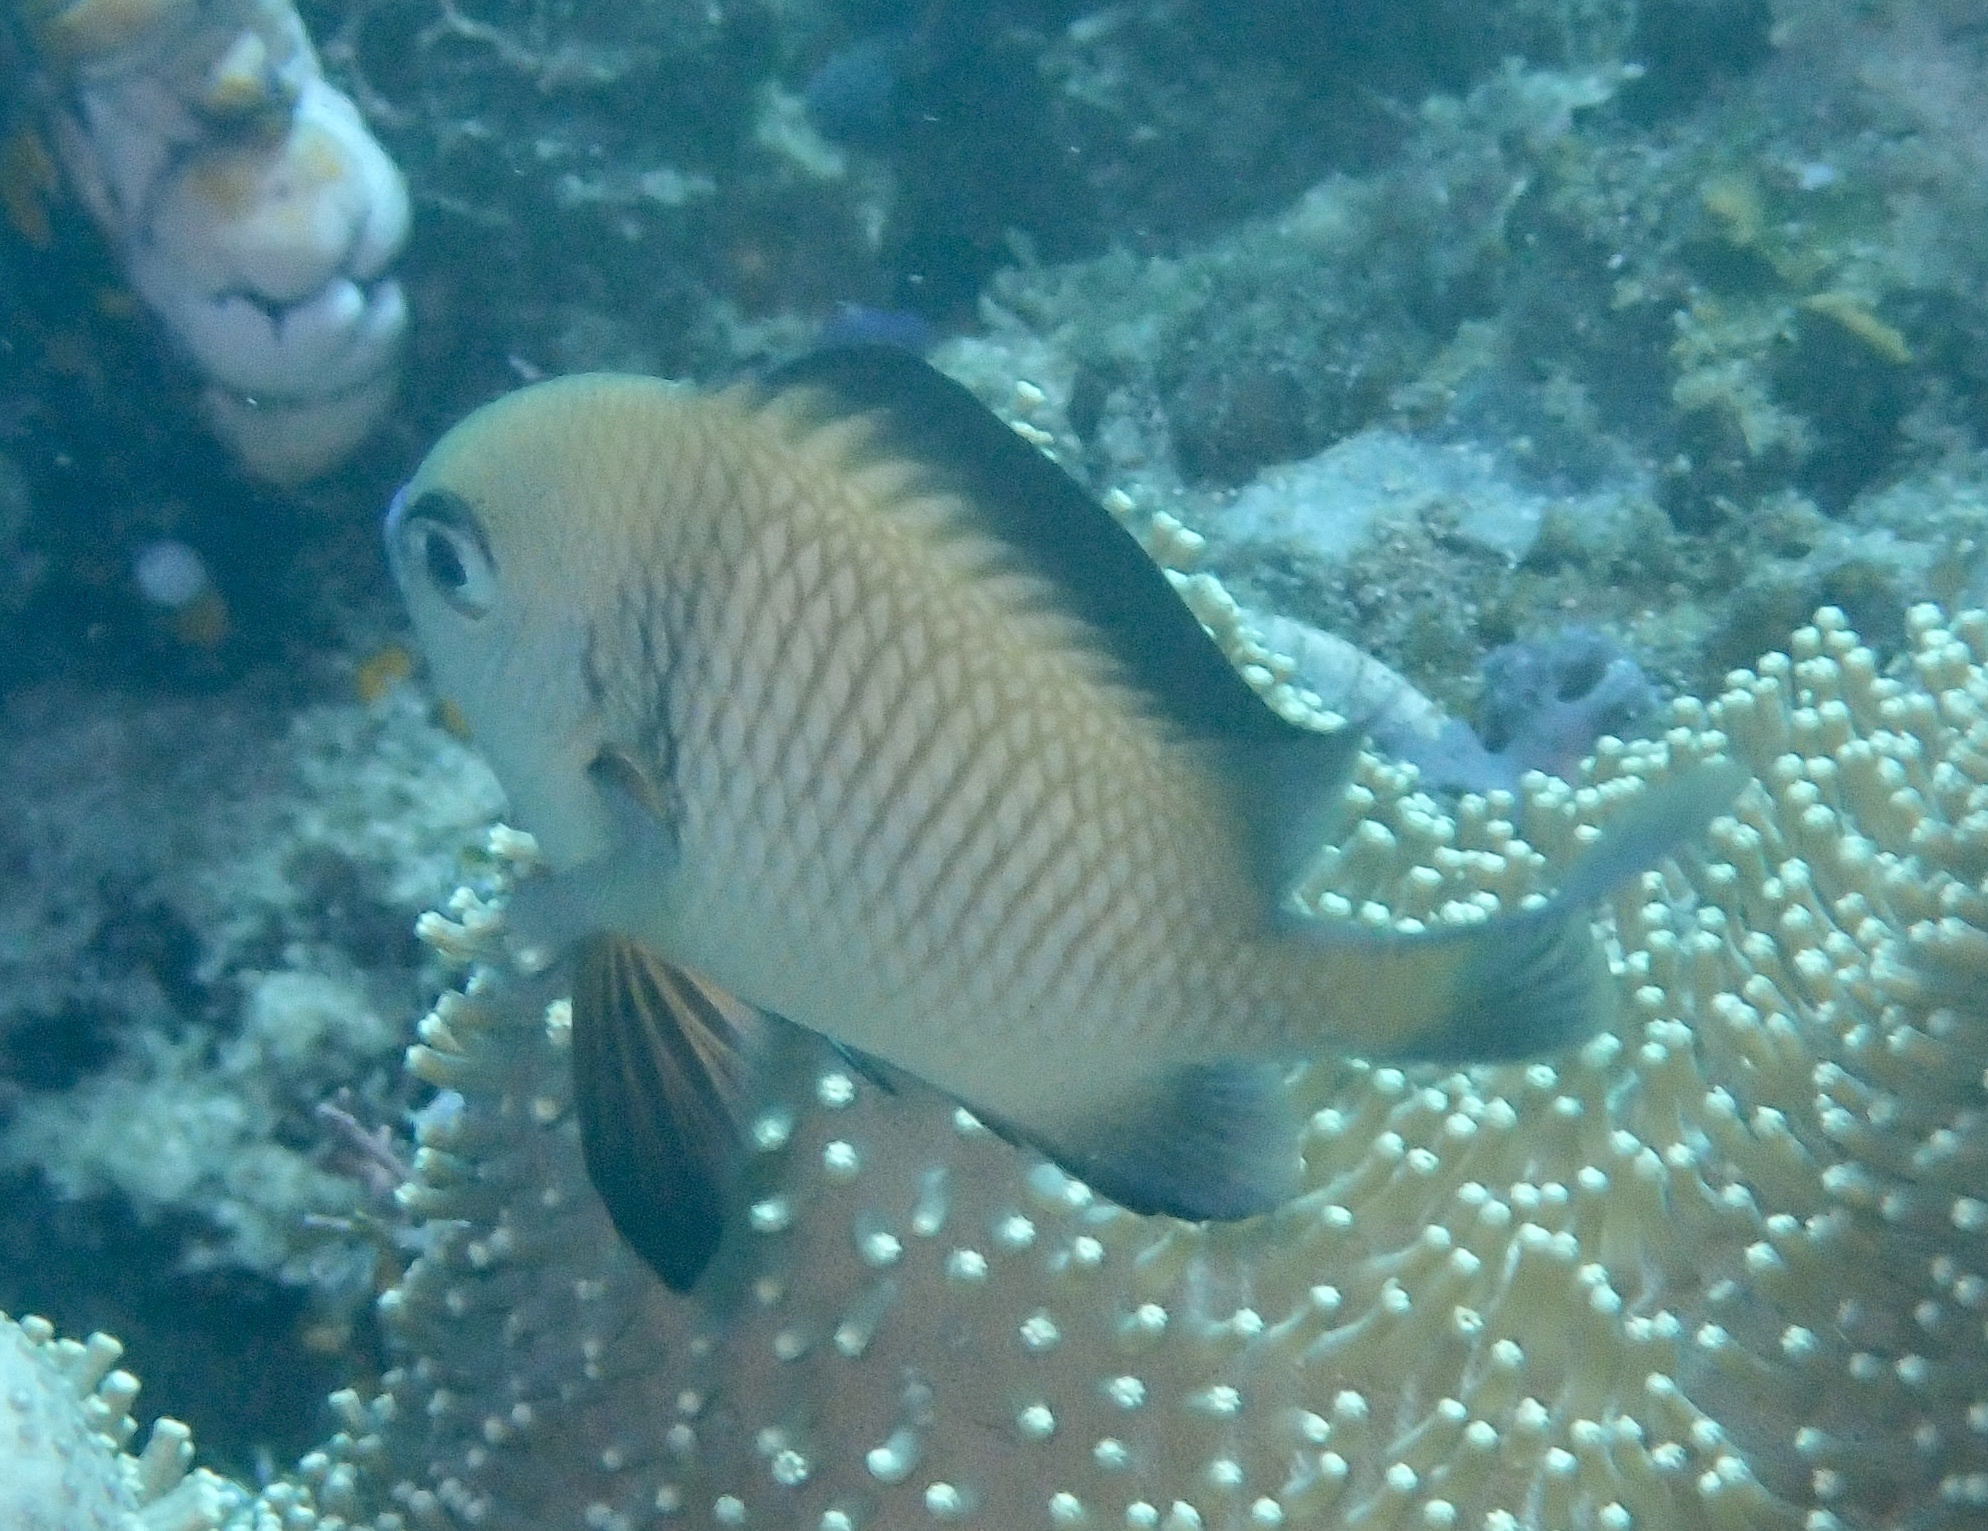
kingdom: Animalia
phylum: Chordata
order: Perciformes
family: Pomacentridae
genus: Dascyllus
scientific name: Dascyllus reticulatus
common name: Reticulated dascyllus
